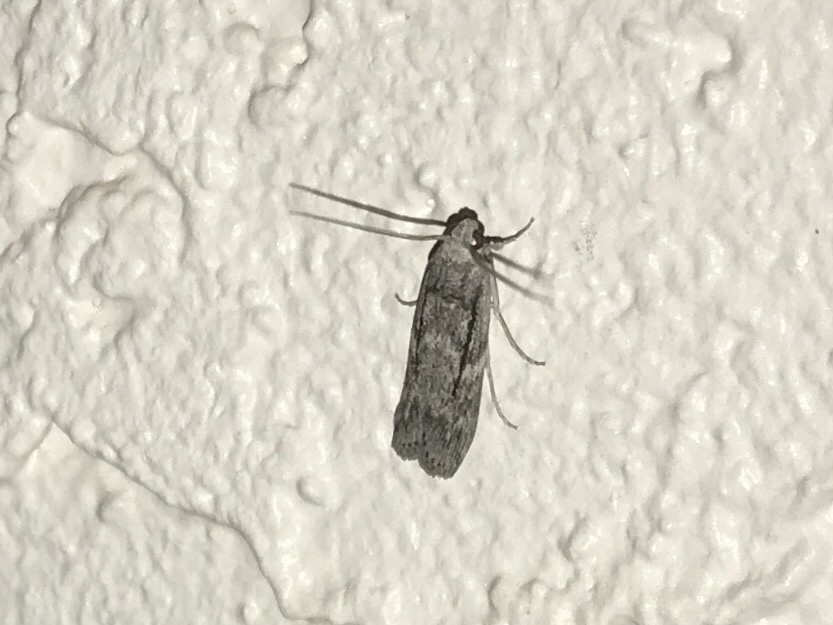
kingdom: Animalia
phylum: Arthropoda
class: Insecta
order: Lepidoptera
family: Pyralidae
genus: Zophodia
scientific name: Zophodia Cactobrosis fernaldialis
